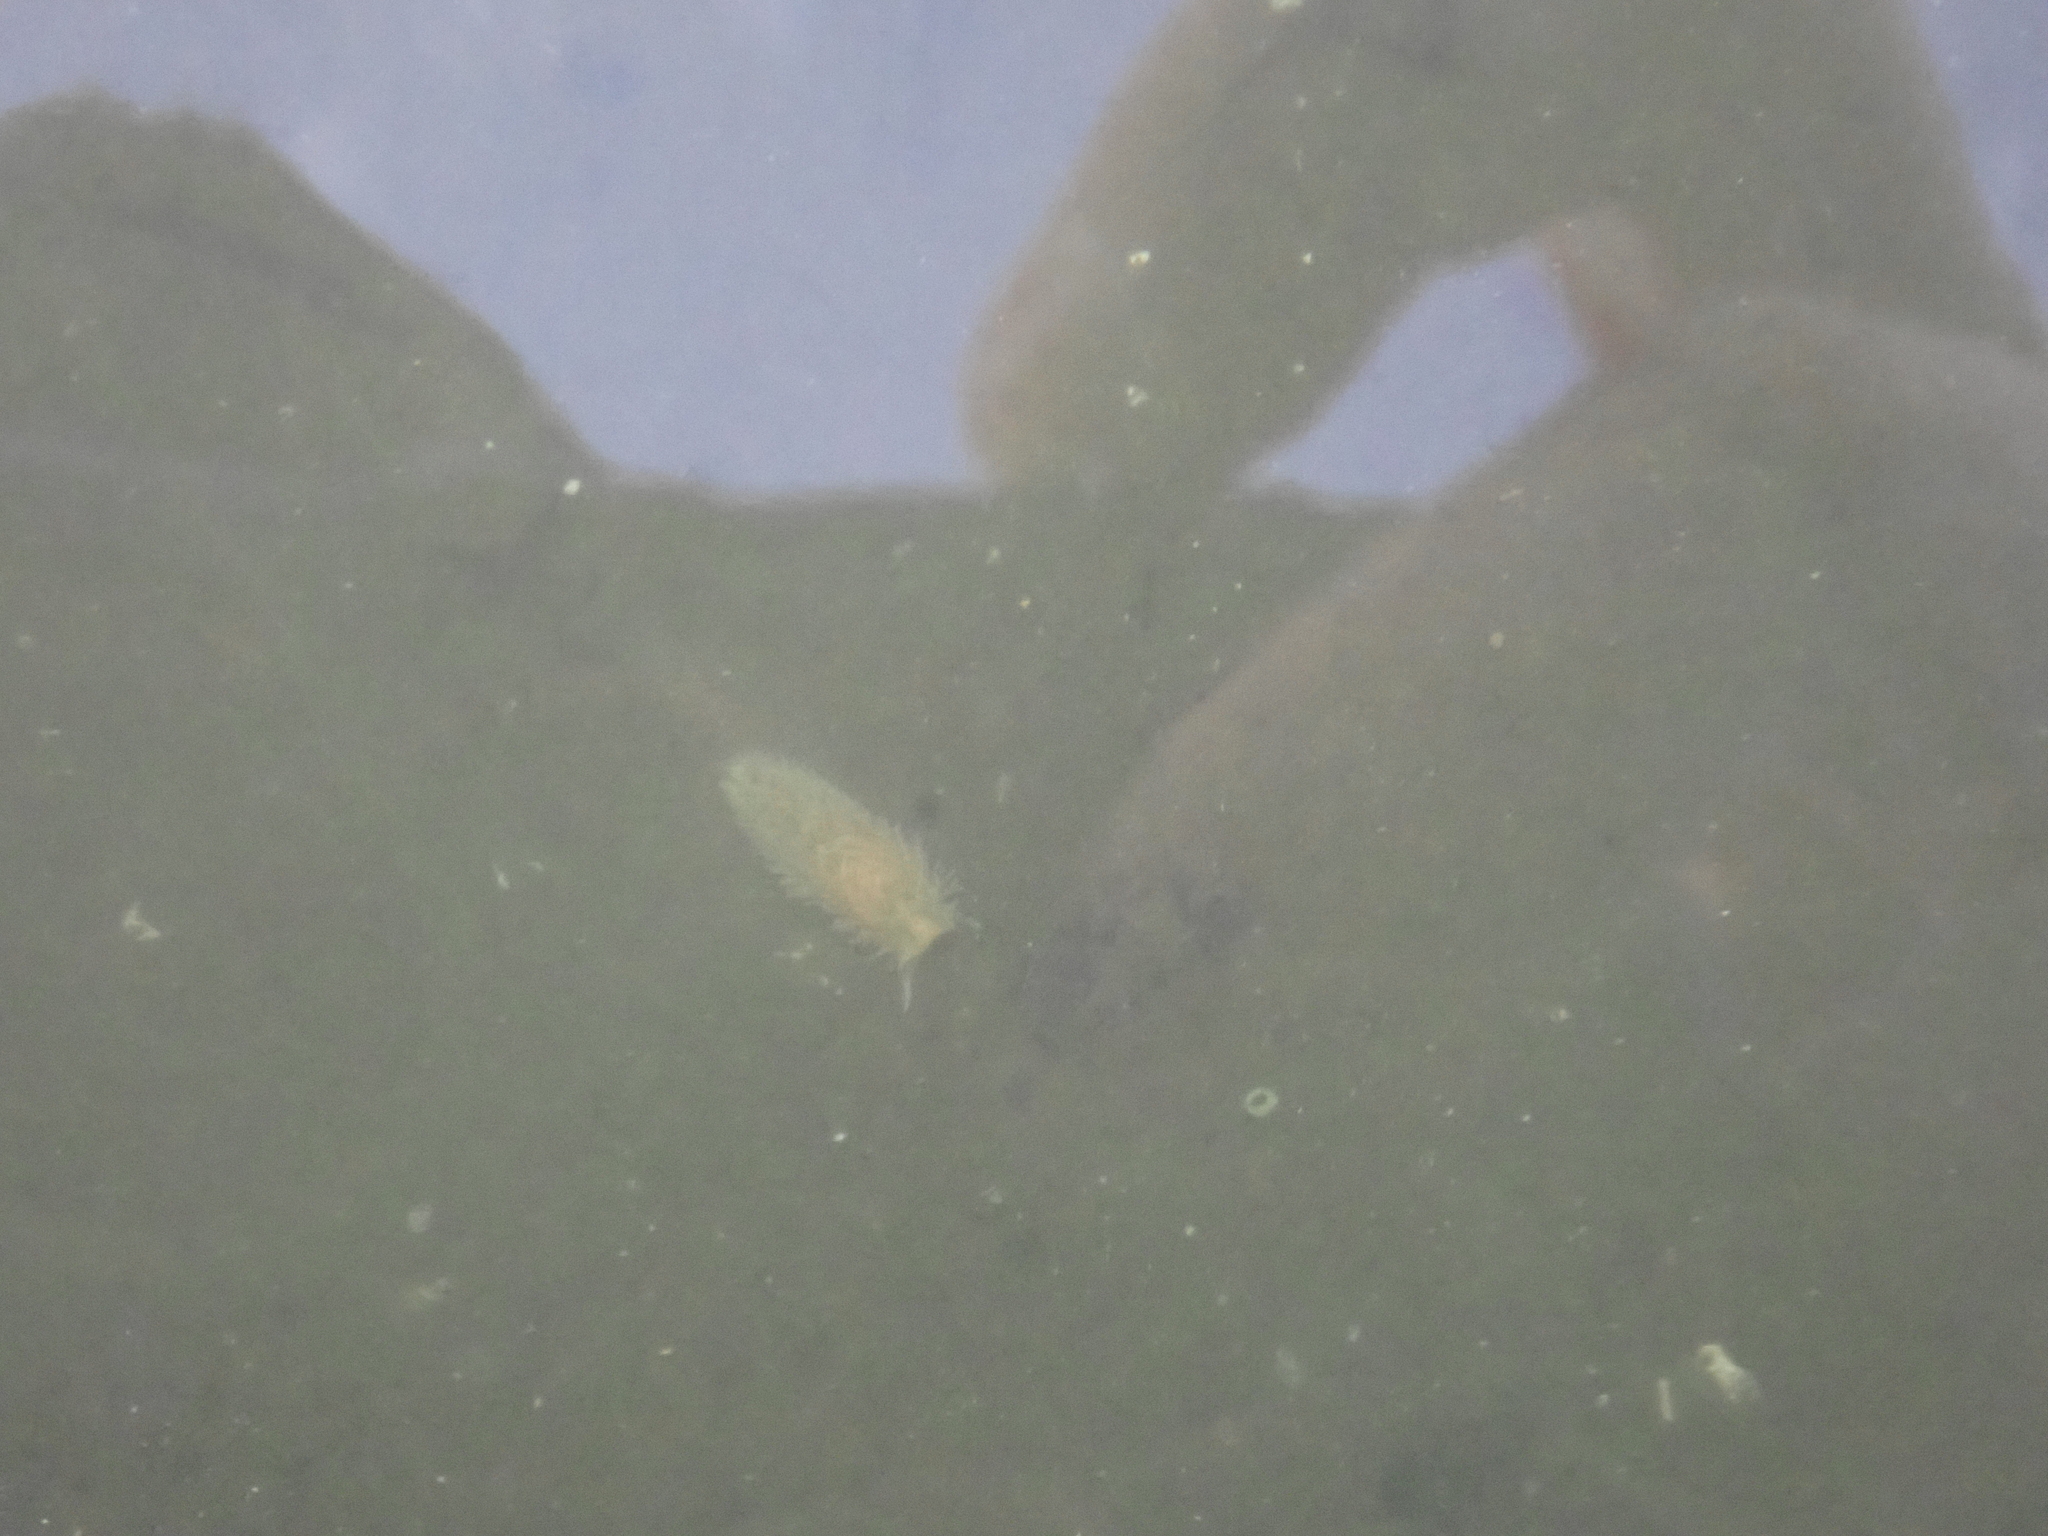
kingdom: Animalia
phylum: Mollusca
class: Gastropoda
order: Nudibranchia
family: Aeolidiidae
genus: Aeolidia
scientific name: Aeolidia papillosa
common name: Common grey sea slug
